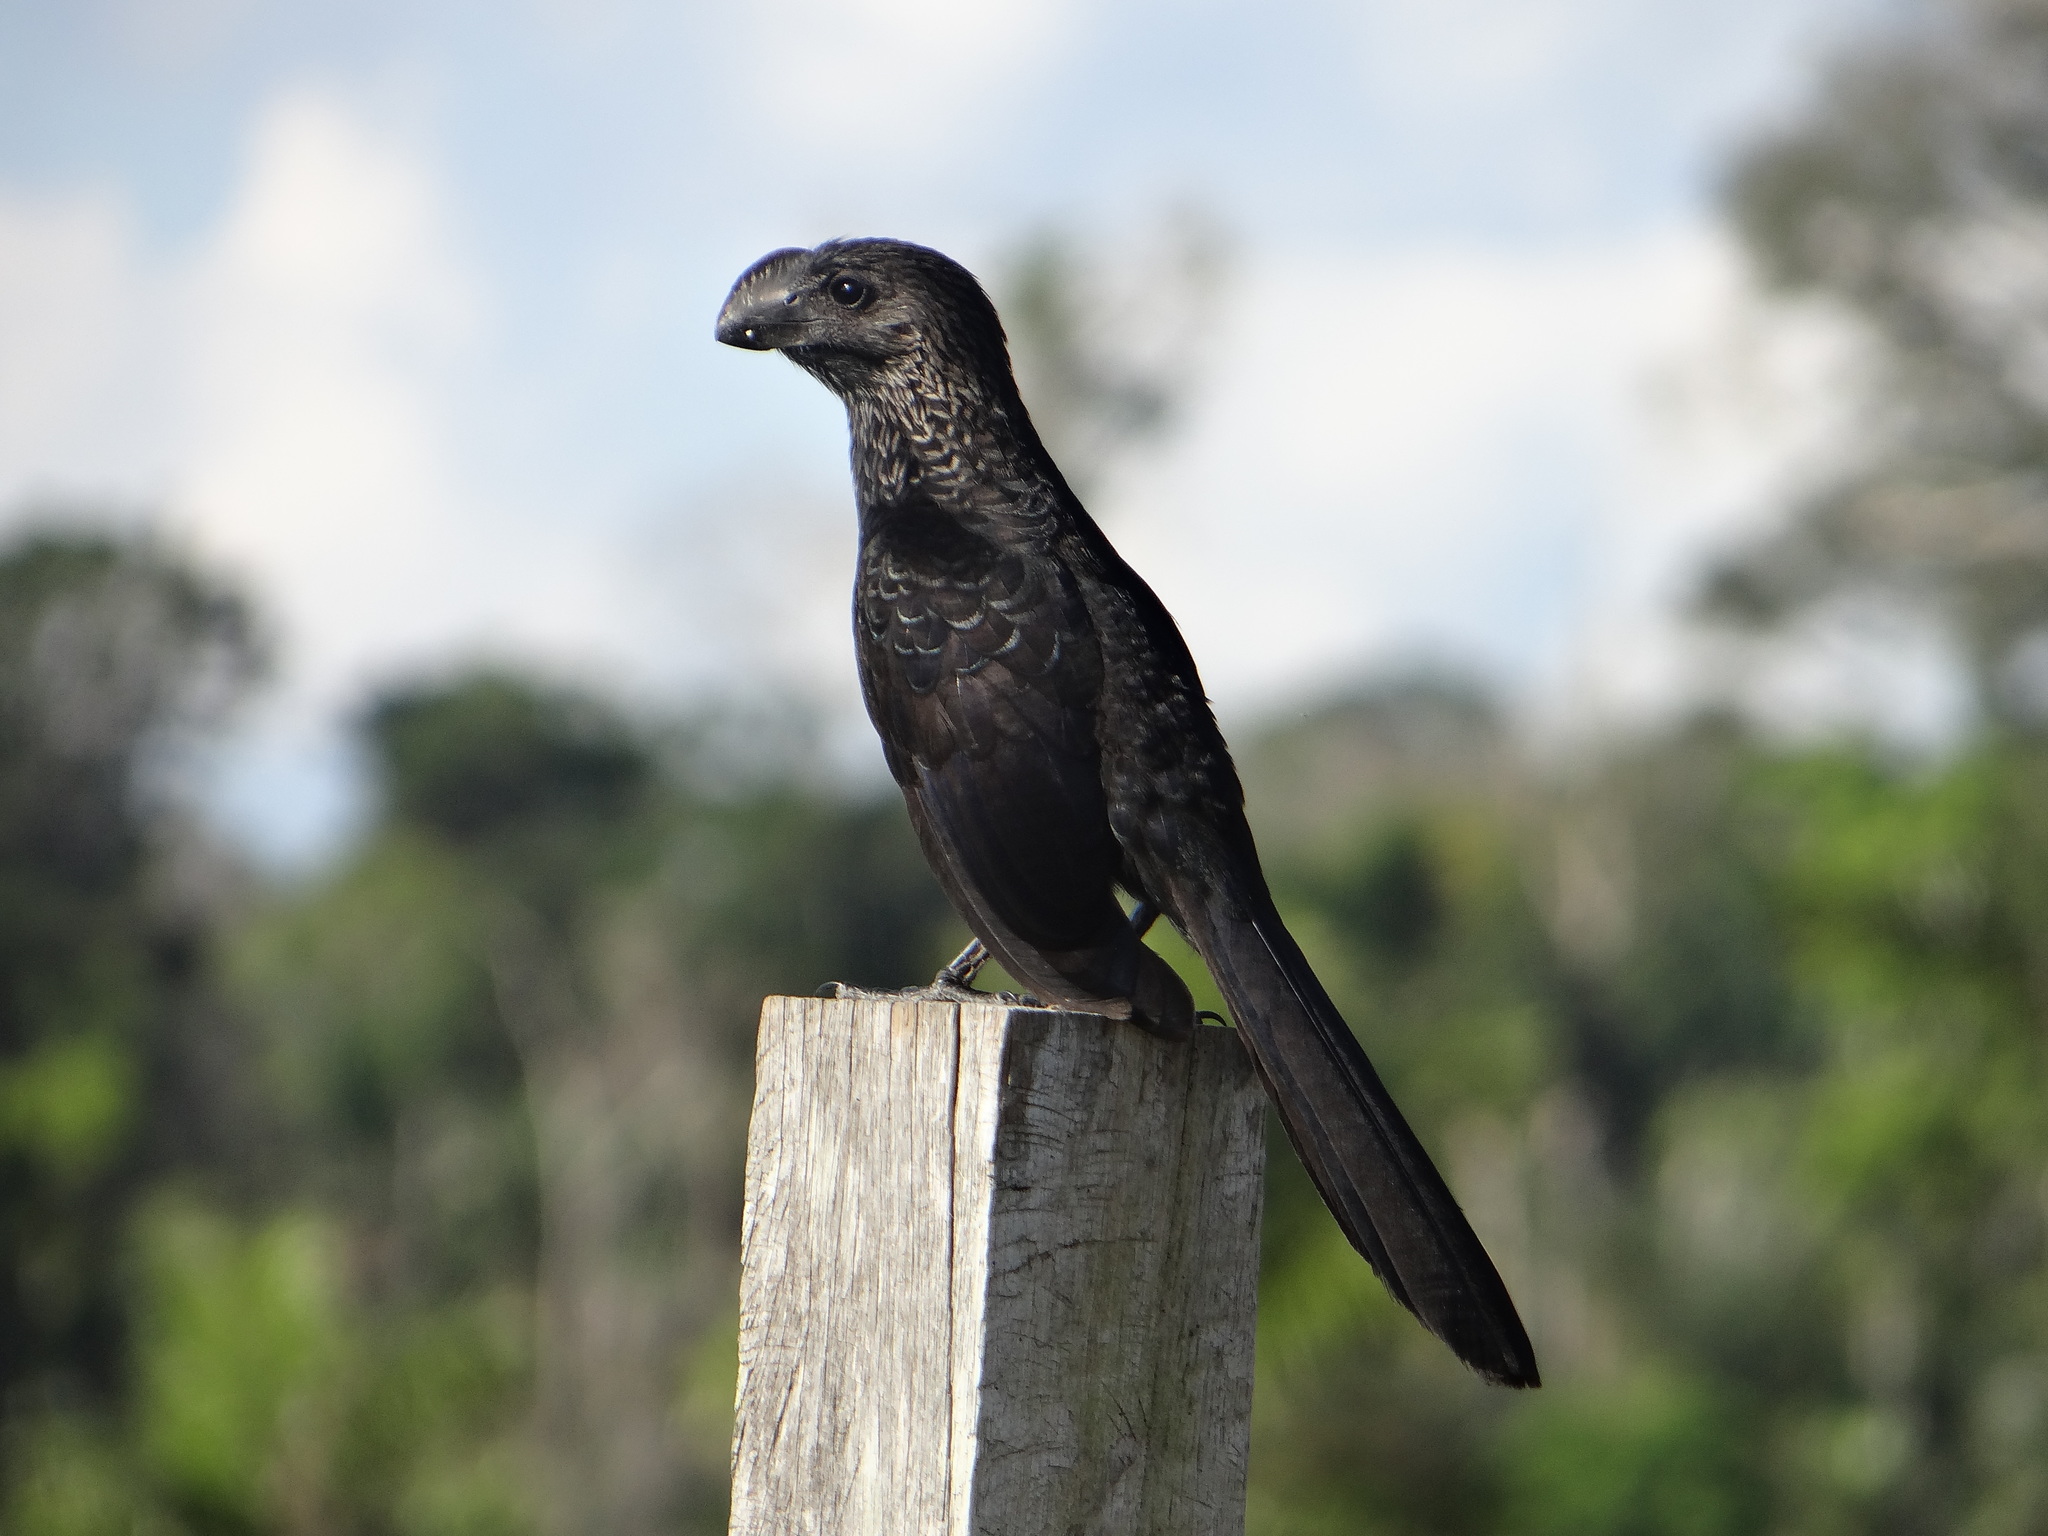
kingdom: Animalia
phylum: Chordata
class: Aves
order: Cuculiformes
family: Cuculidae
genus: Crotophaga
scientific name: Crotophaga ani
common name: Smooth-billed ani
